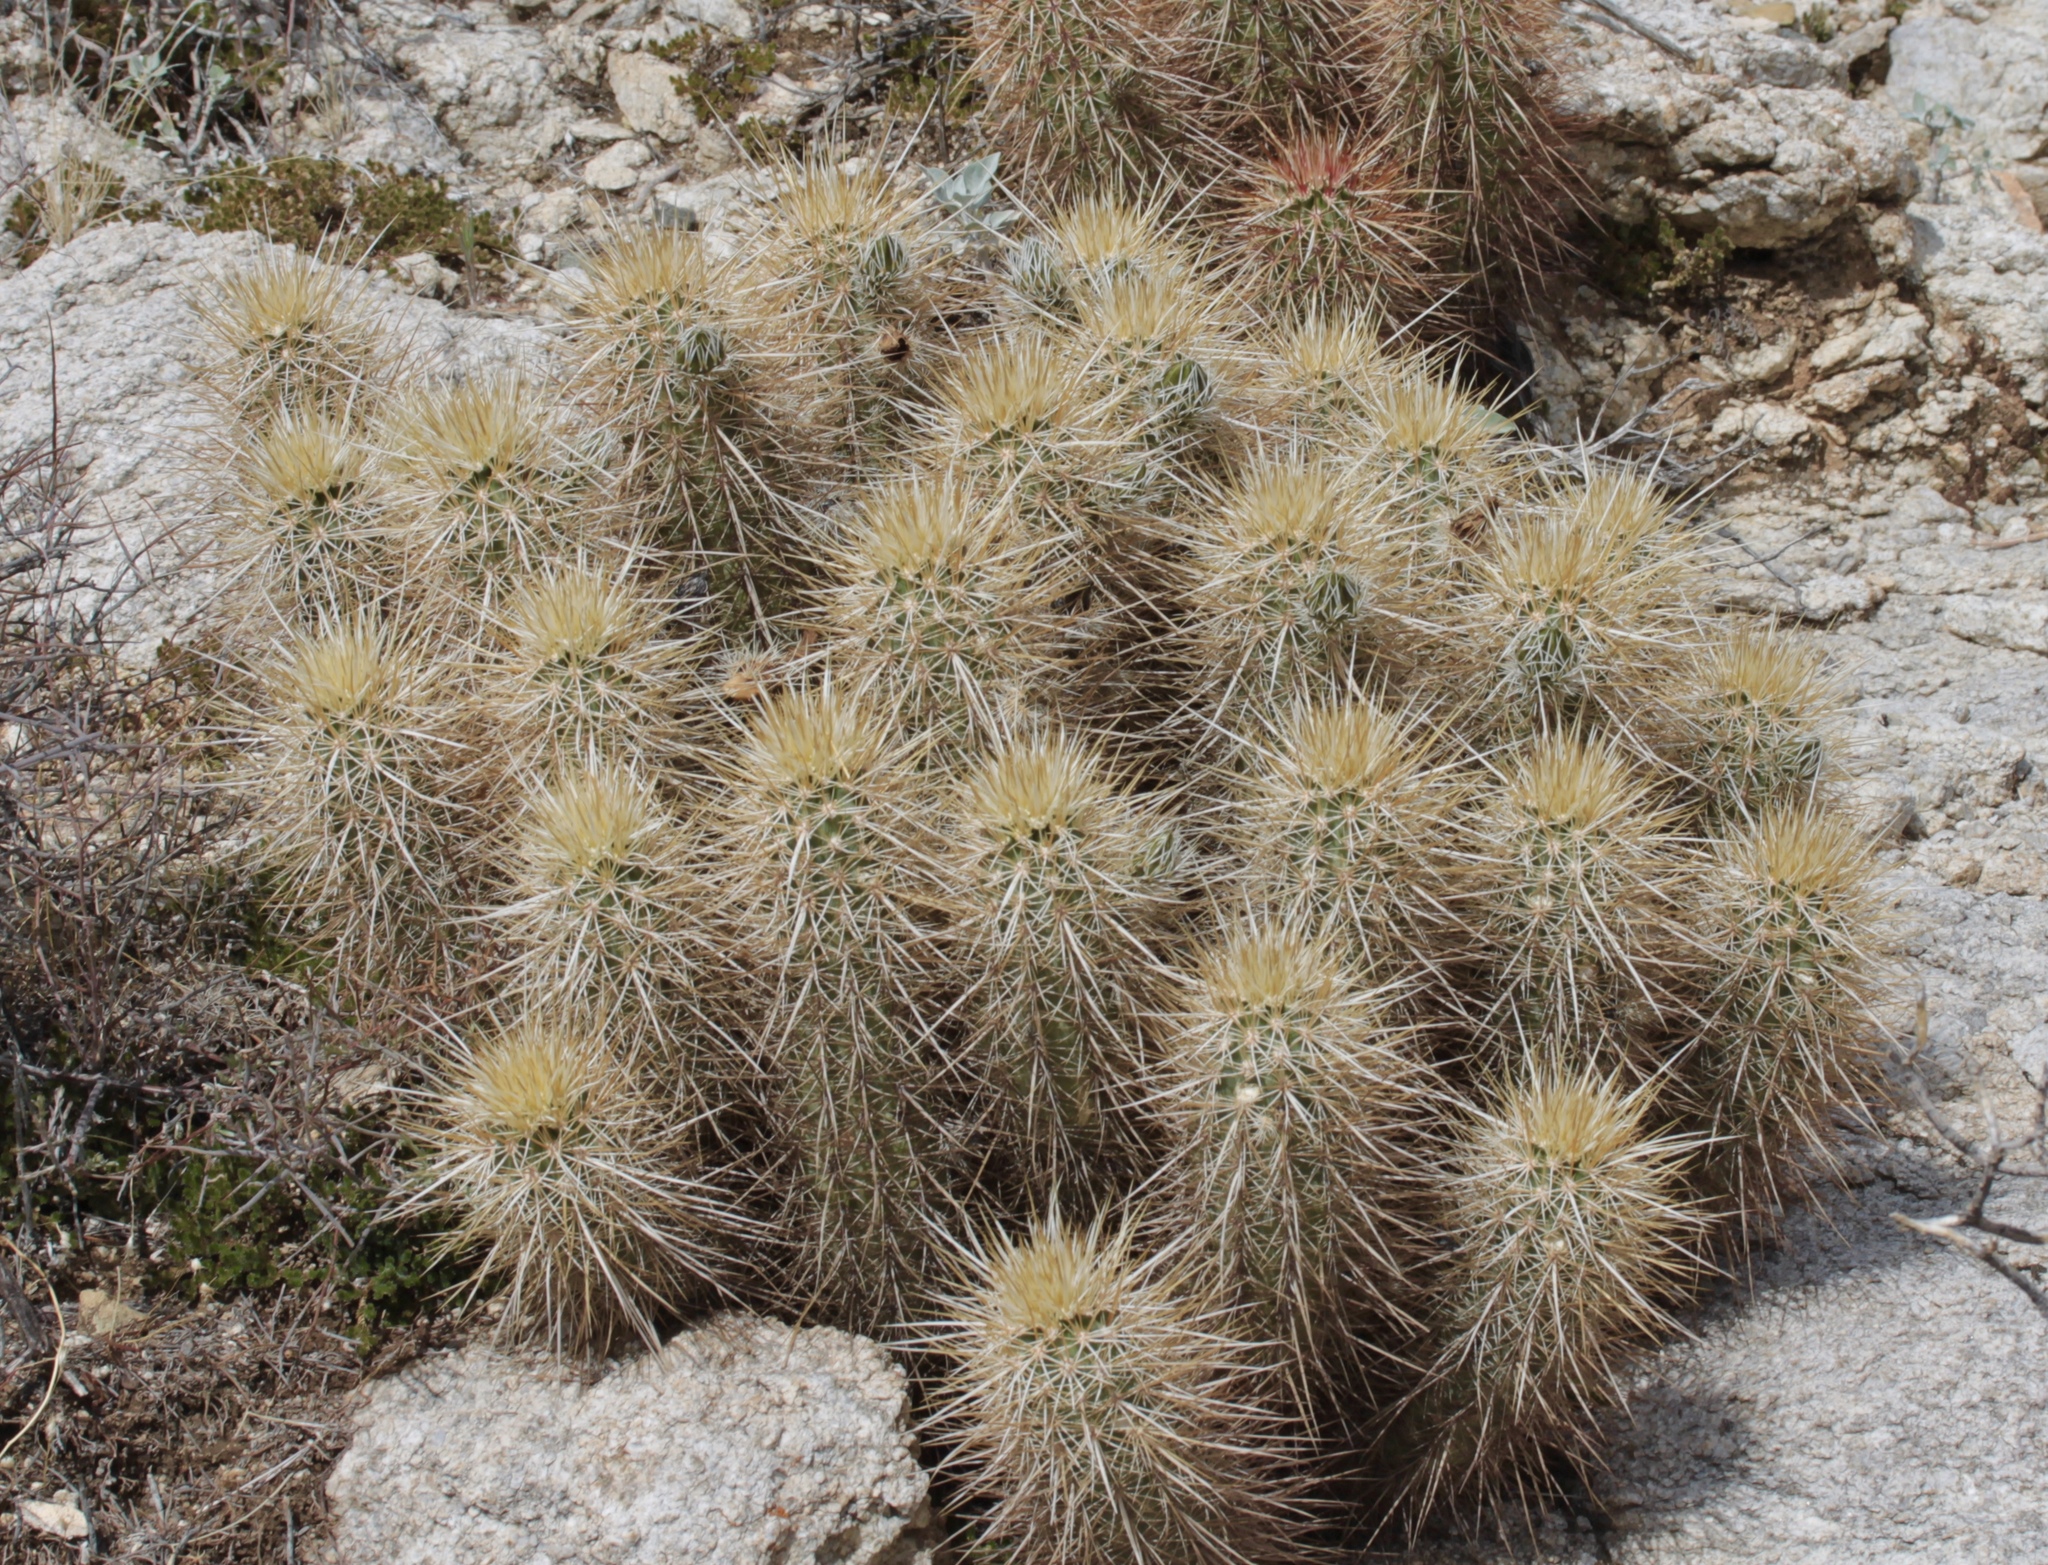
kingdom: Plantae
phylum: Tracheophyta
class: Magnoliopsida
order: Caryophyllales
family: Cactaceae
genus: Echinocereus
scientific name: Echinocereus engelmannii
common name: Engelmann's hedgehog cactus
